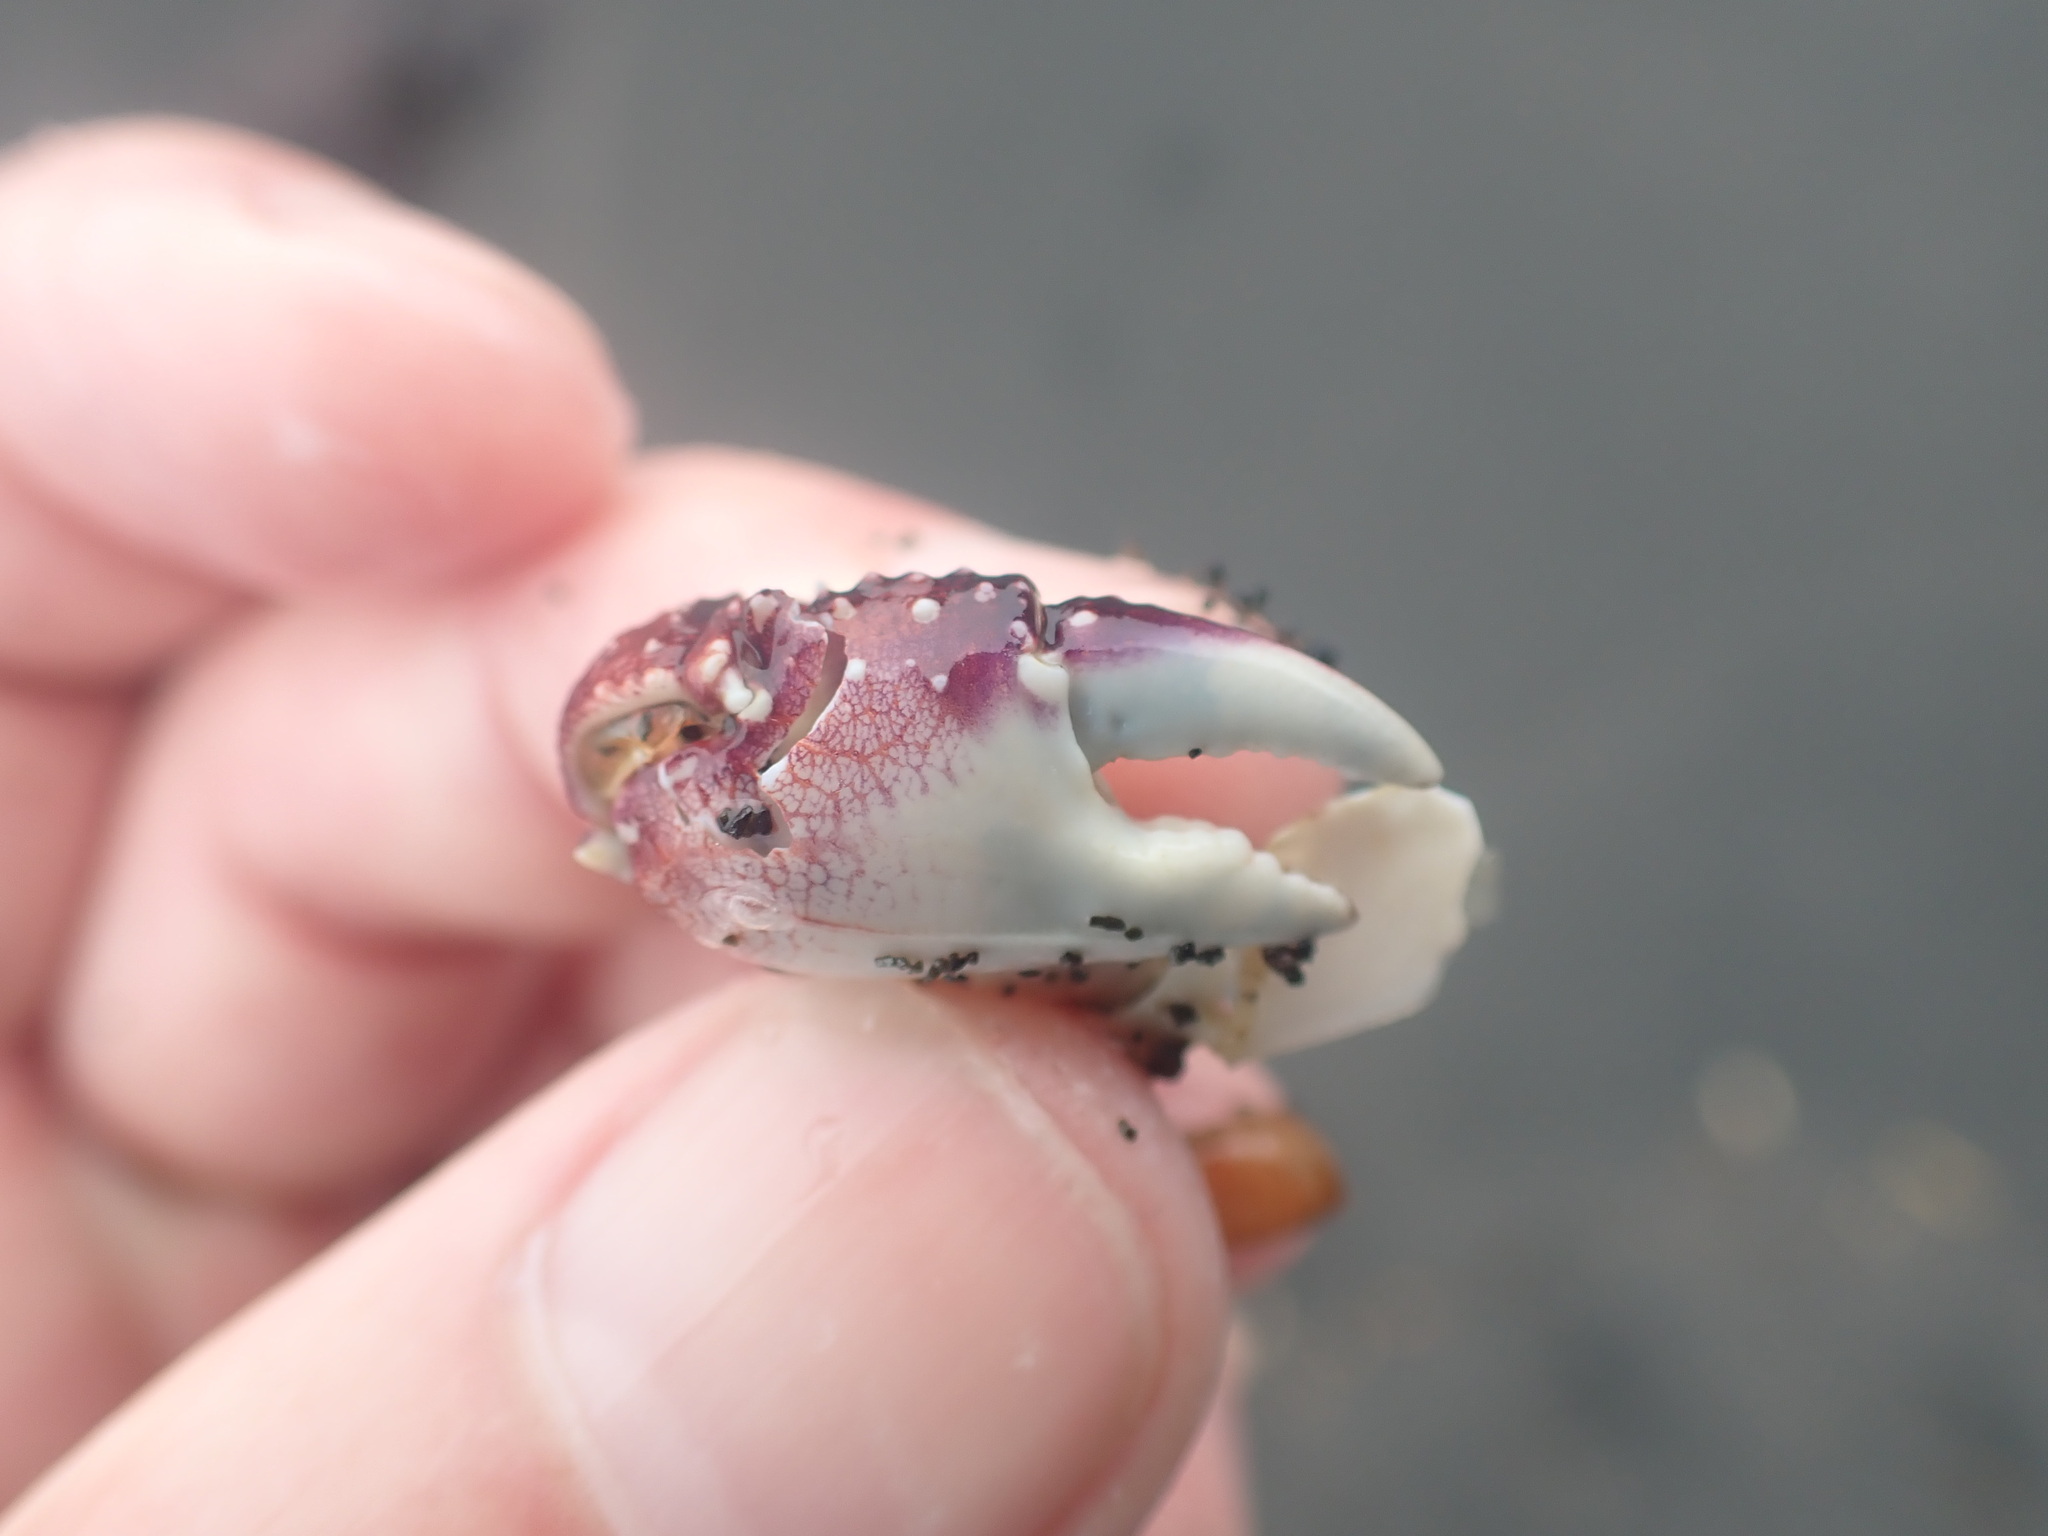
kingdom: Animalia
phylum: Arthropoda
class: Malacostraca
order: Decapoda
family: Grapsidae
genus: Leptograpsus
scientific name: Leptograpsus variegatus
